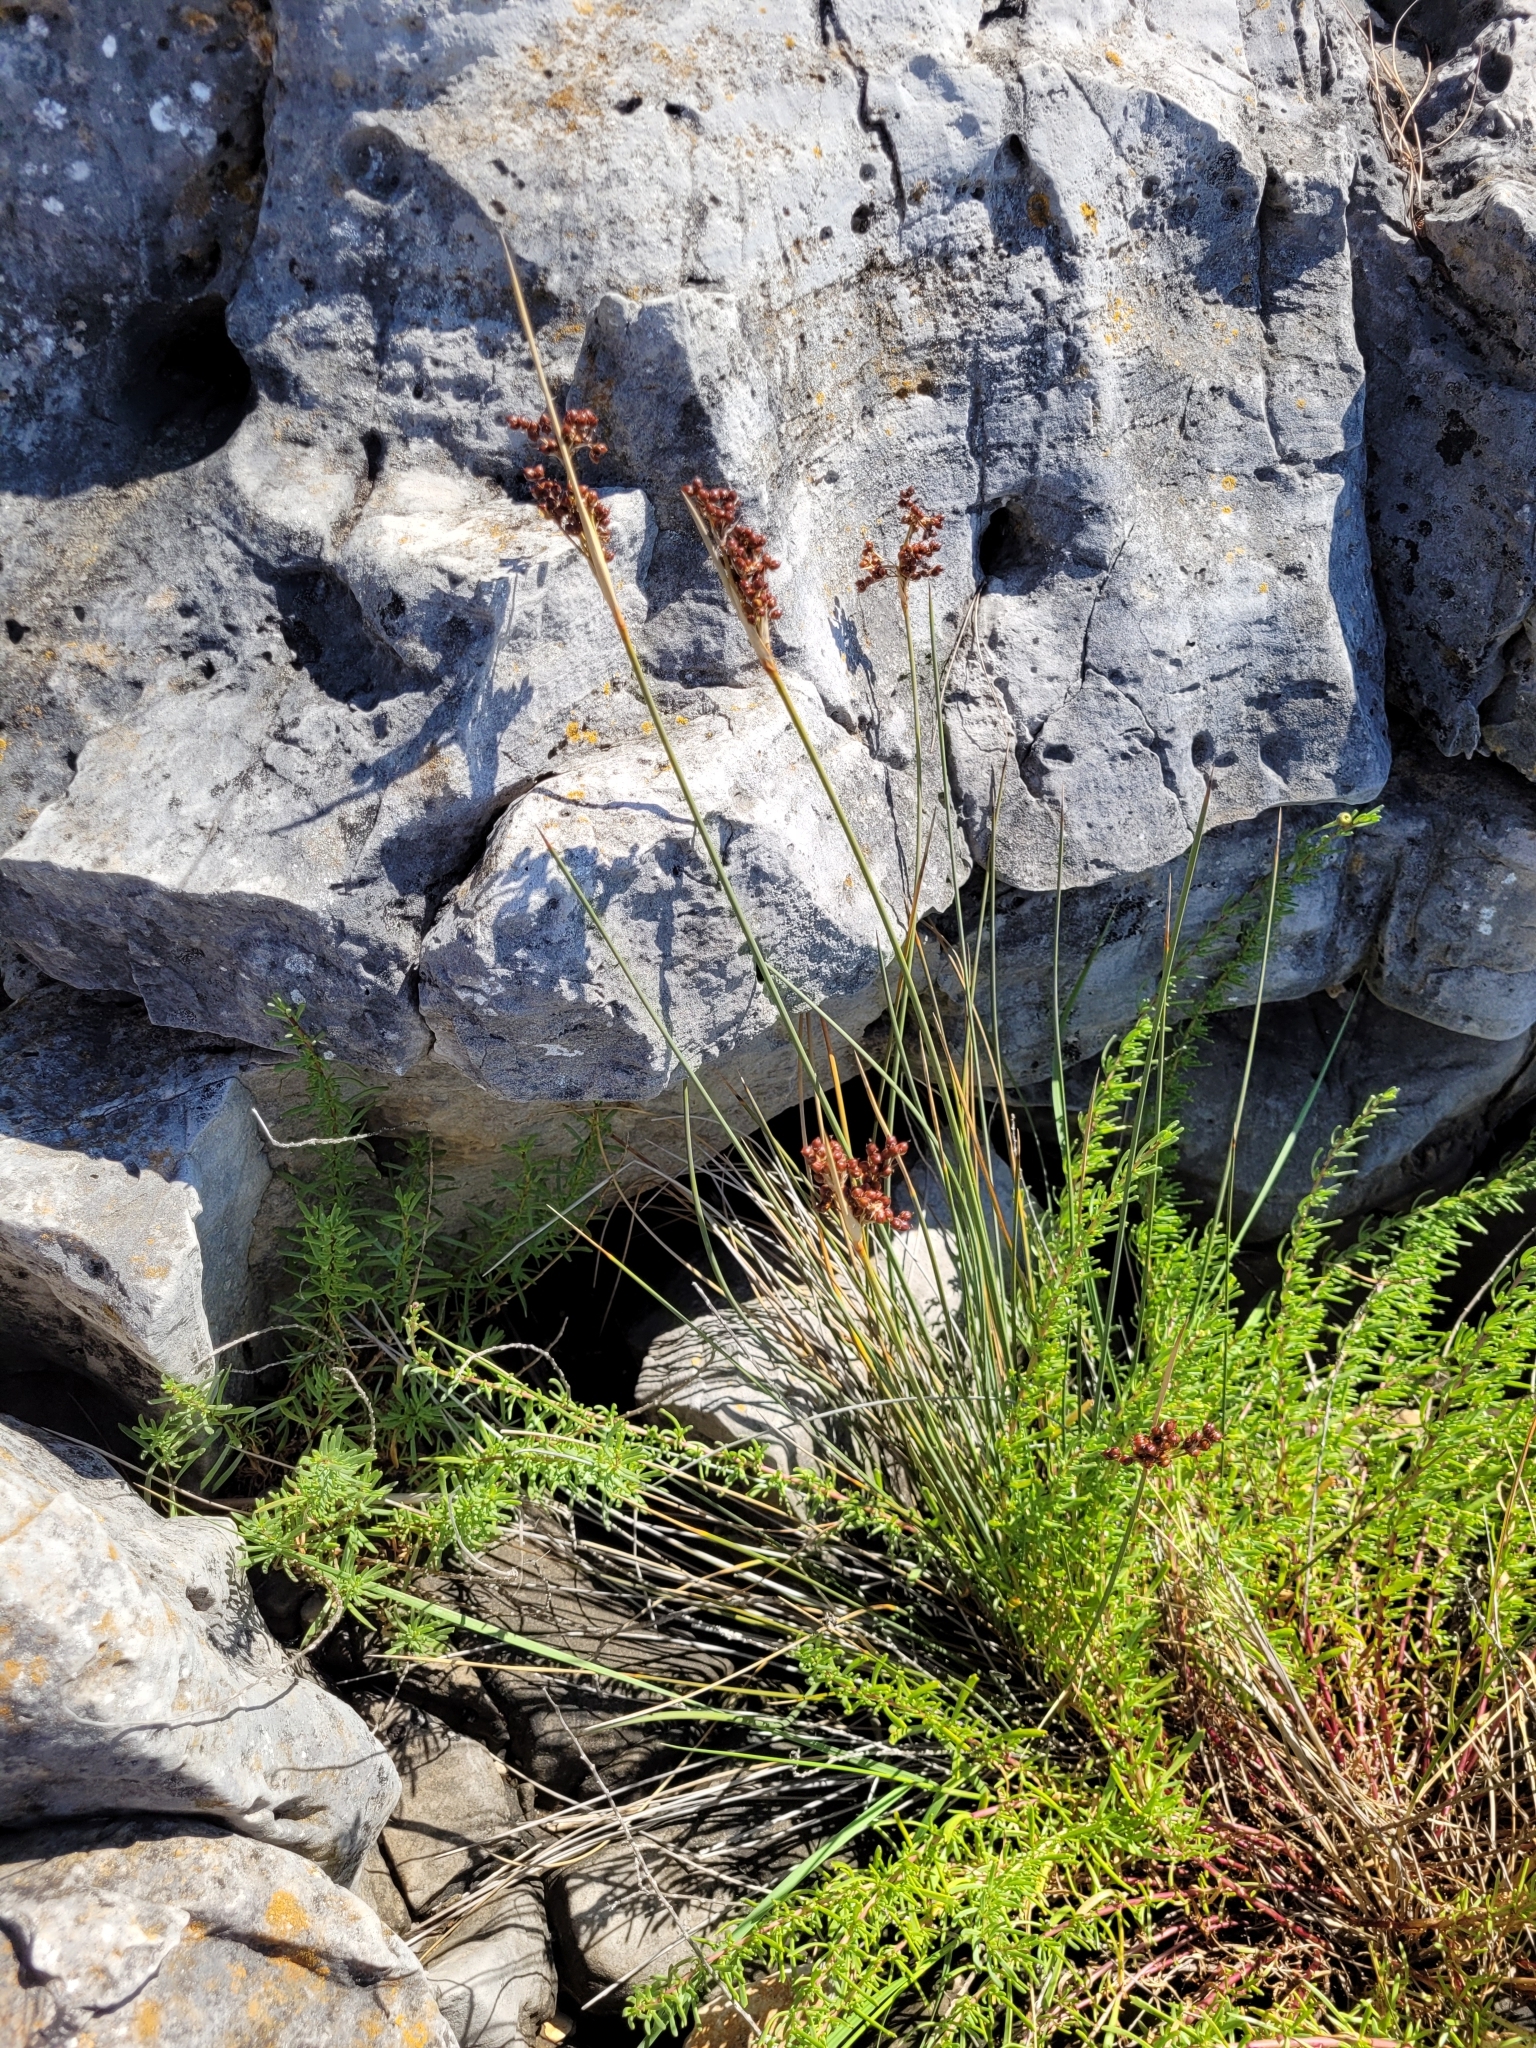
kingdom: Plantae
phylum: Tracheophyta
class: Liliopsida
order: Poales
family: Juncaceae
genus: Juncus
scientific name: Juncus acutus
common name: Sharp rush
